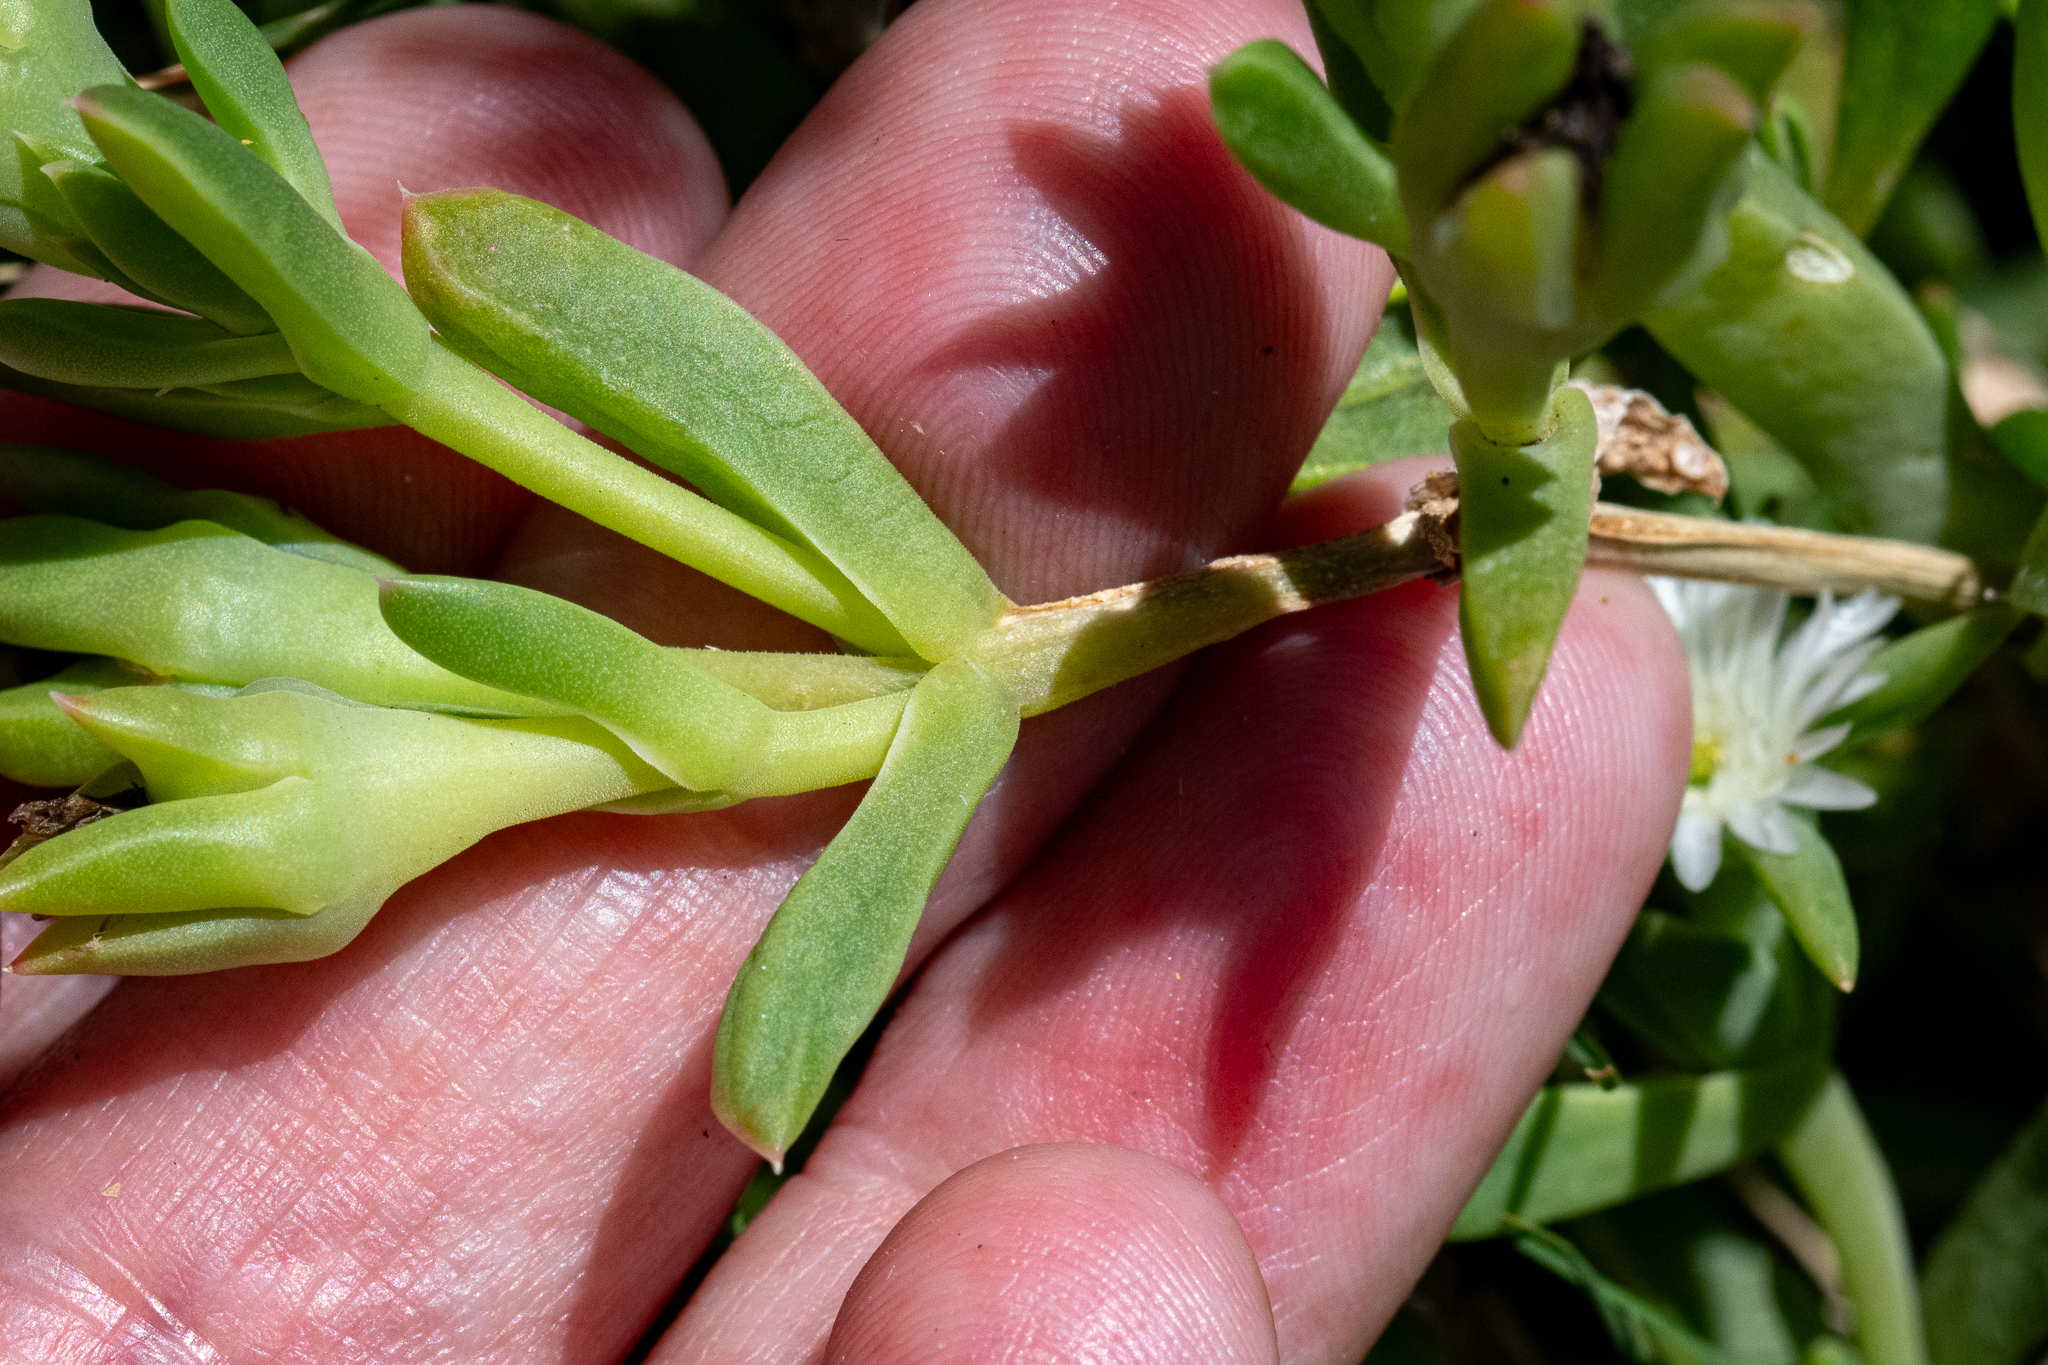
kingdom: Plantae
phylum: Tracheophyta
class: Magnoliopsida
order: Caryophyllales
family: Aizoaceae
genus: Delosperma
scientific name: Delosperma guthriei
